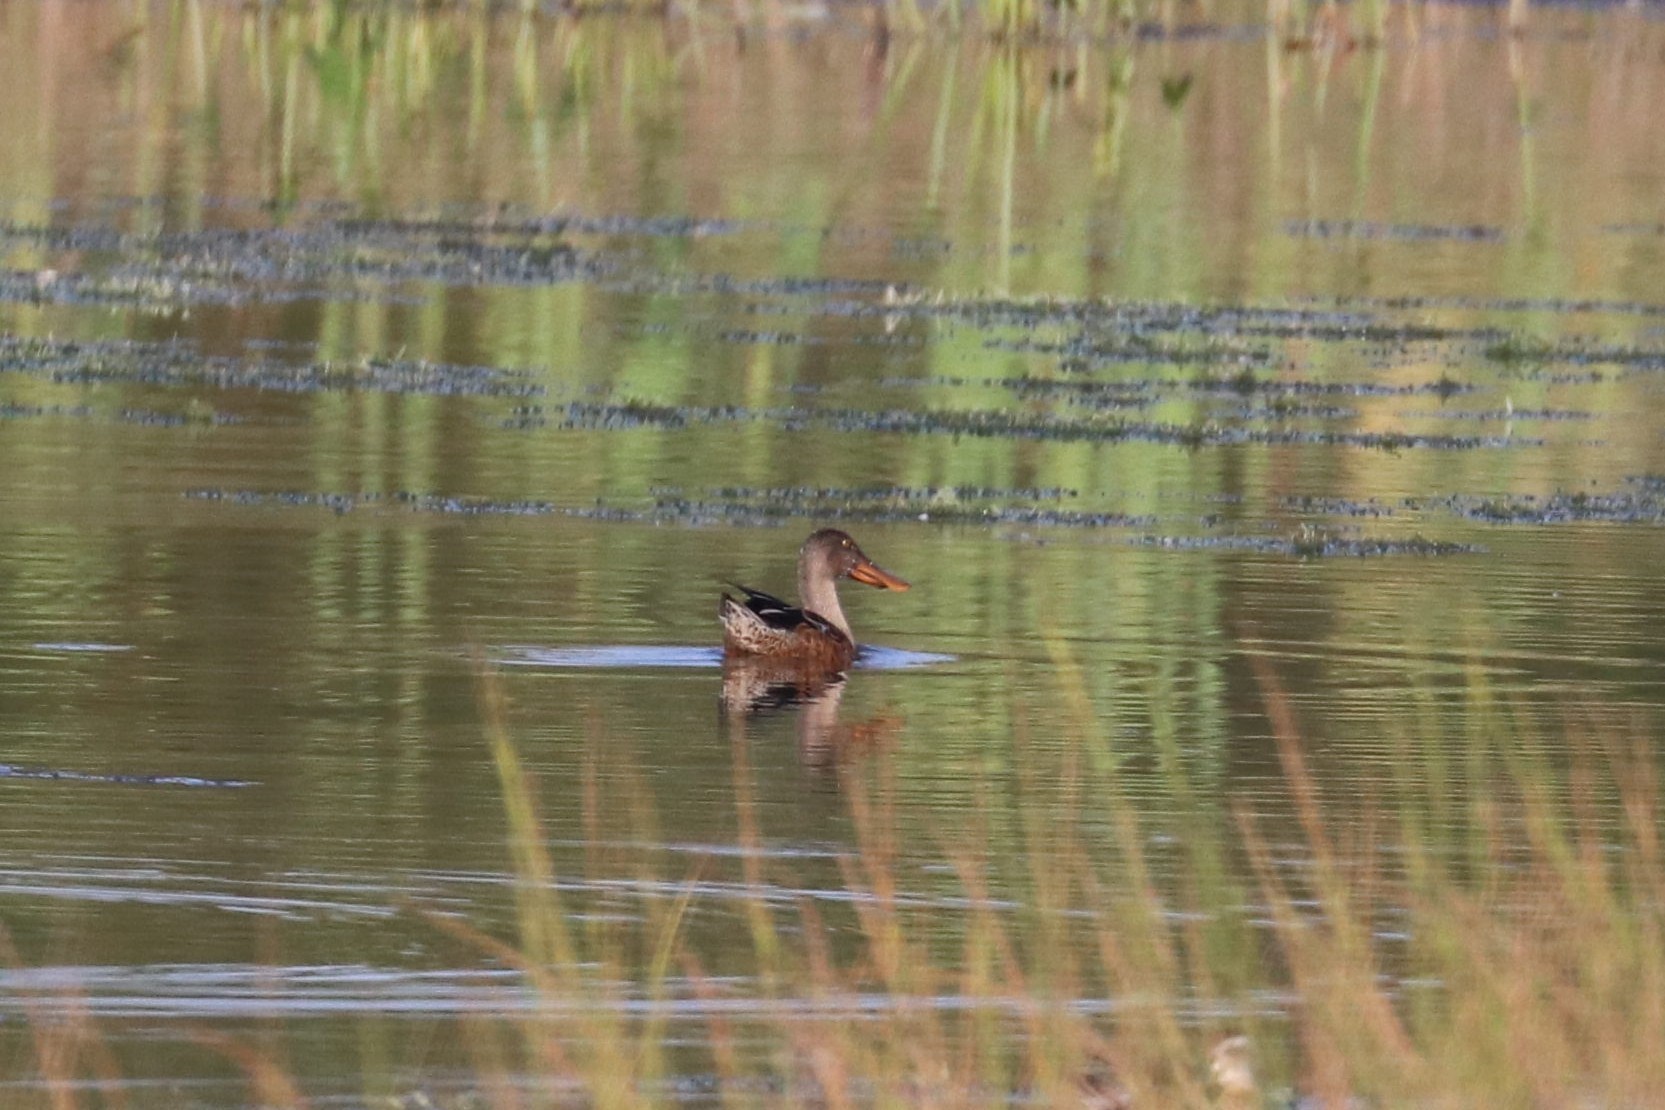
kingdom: Animalia
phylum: Chordata
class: Aves
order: Anseriformes
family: Anatidae
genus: Spatula
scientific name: Spatula clypeata
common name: Northern shoveler
